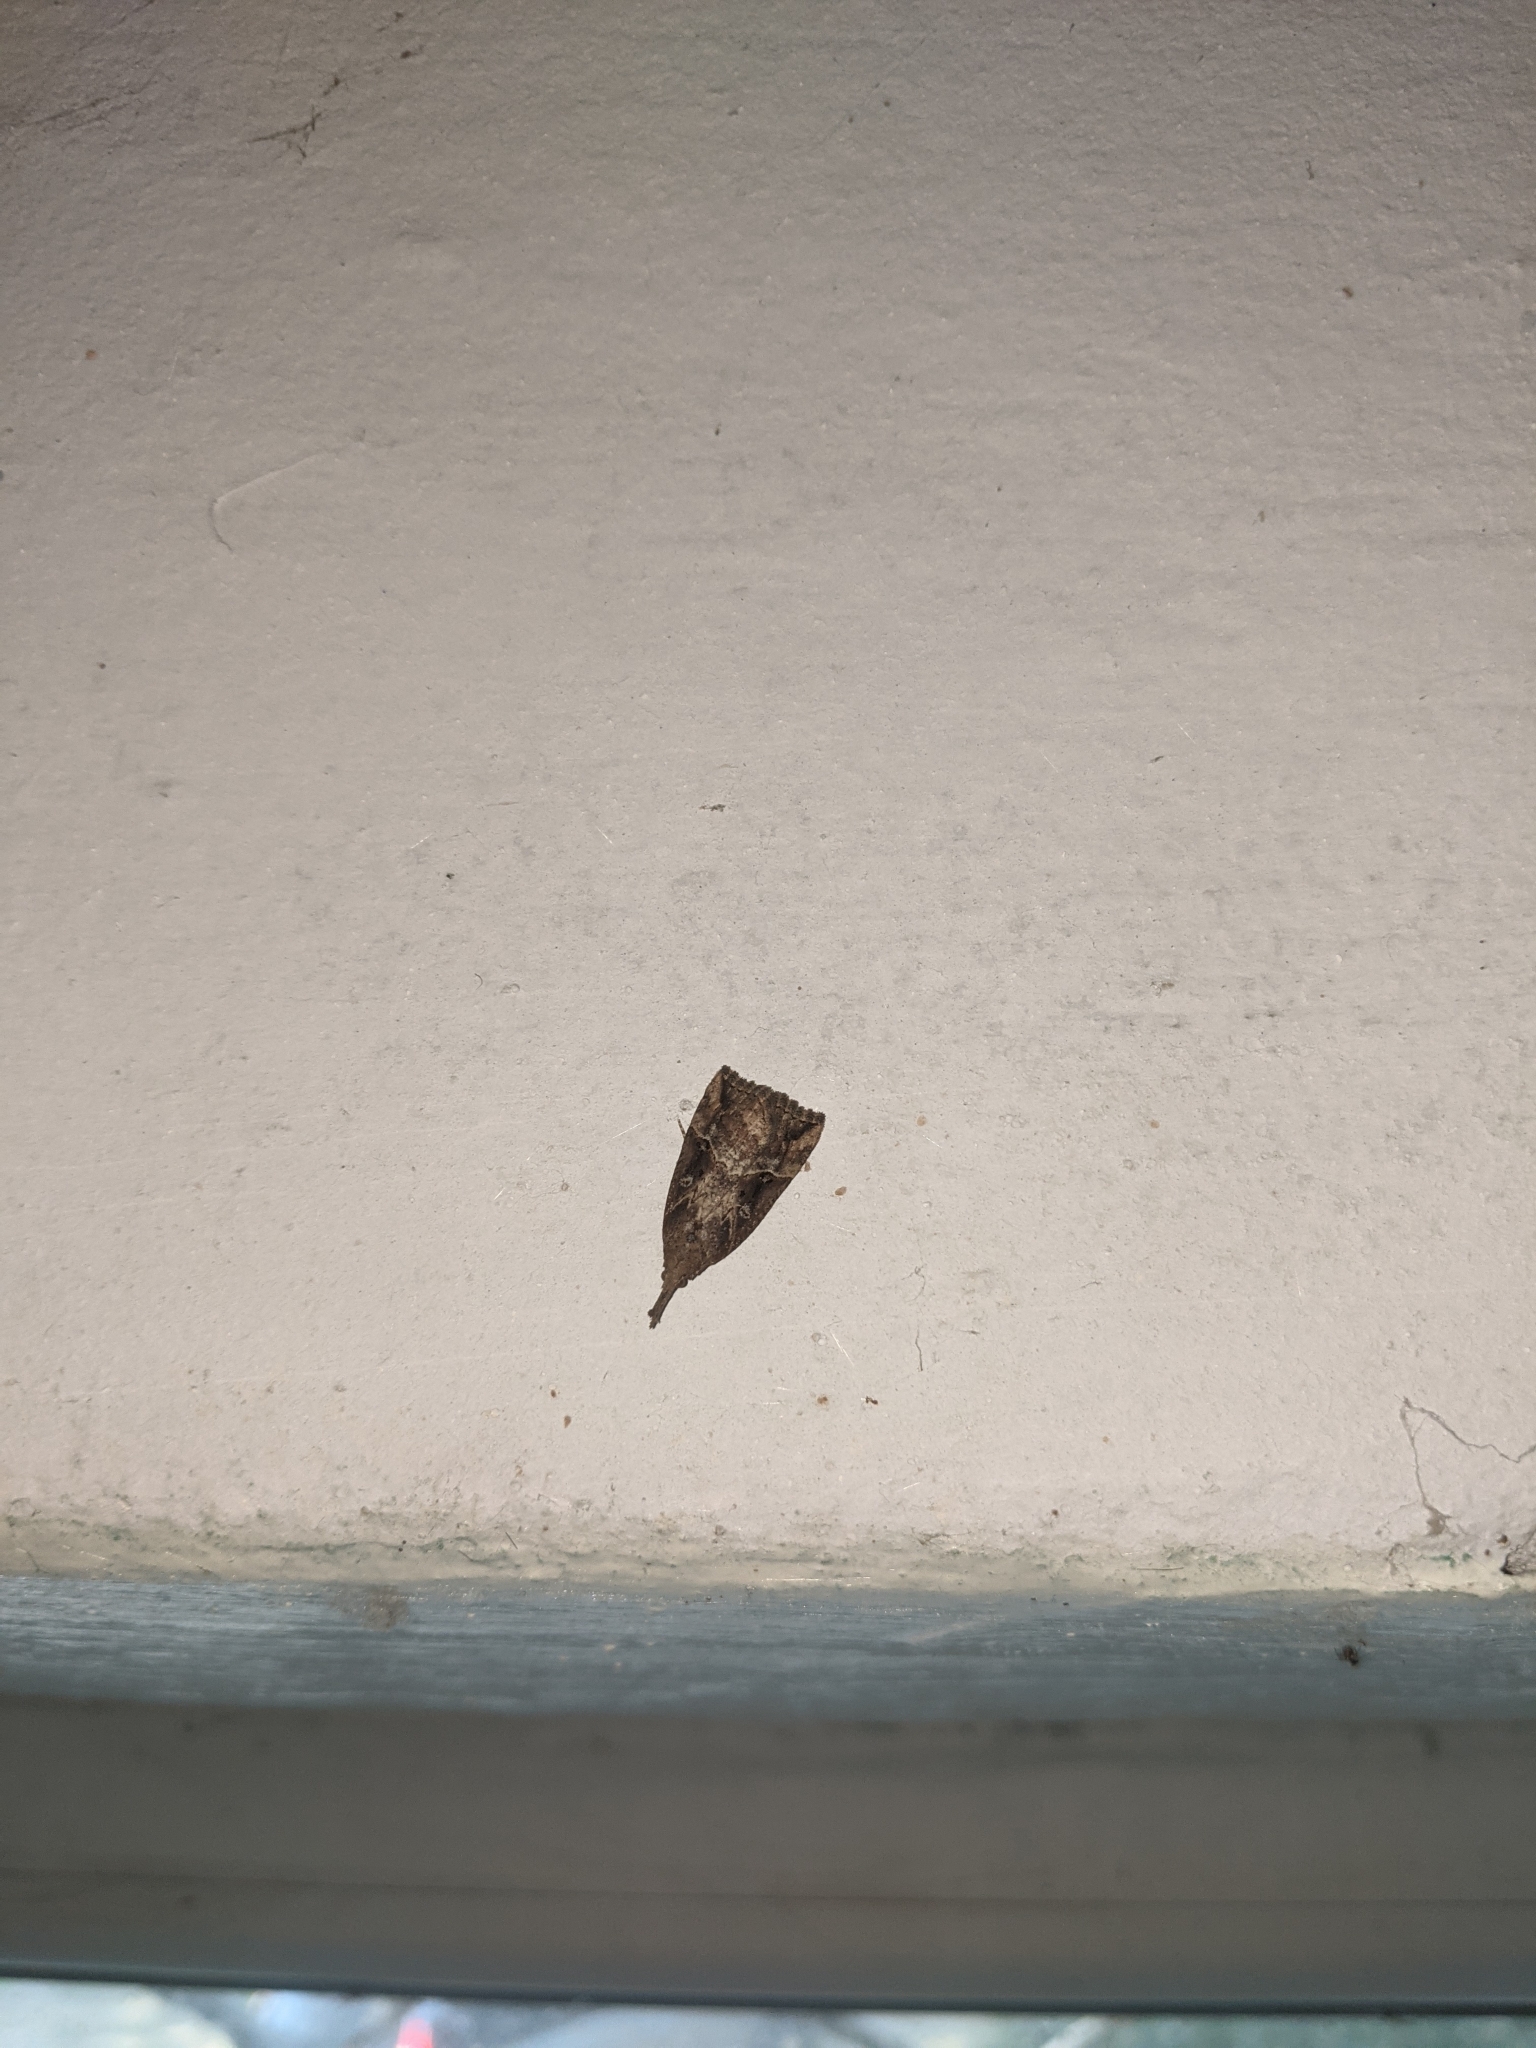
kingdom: Animalia
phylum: Arthropoda
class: Insecta
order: Lepidoptera
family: Erebidae
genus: Hypena
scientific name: Hypena rostralis
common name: Buttoned snout
